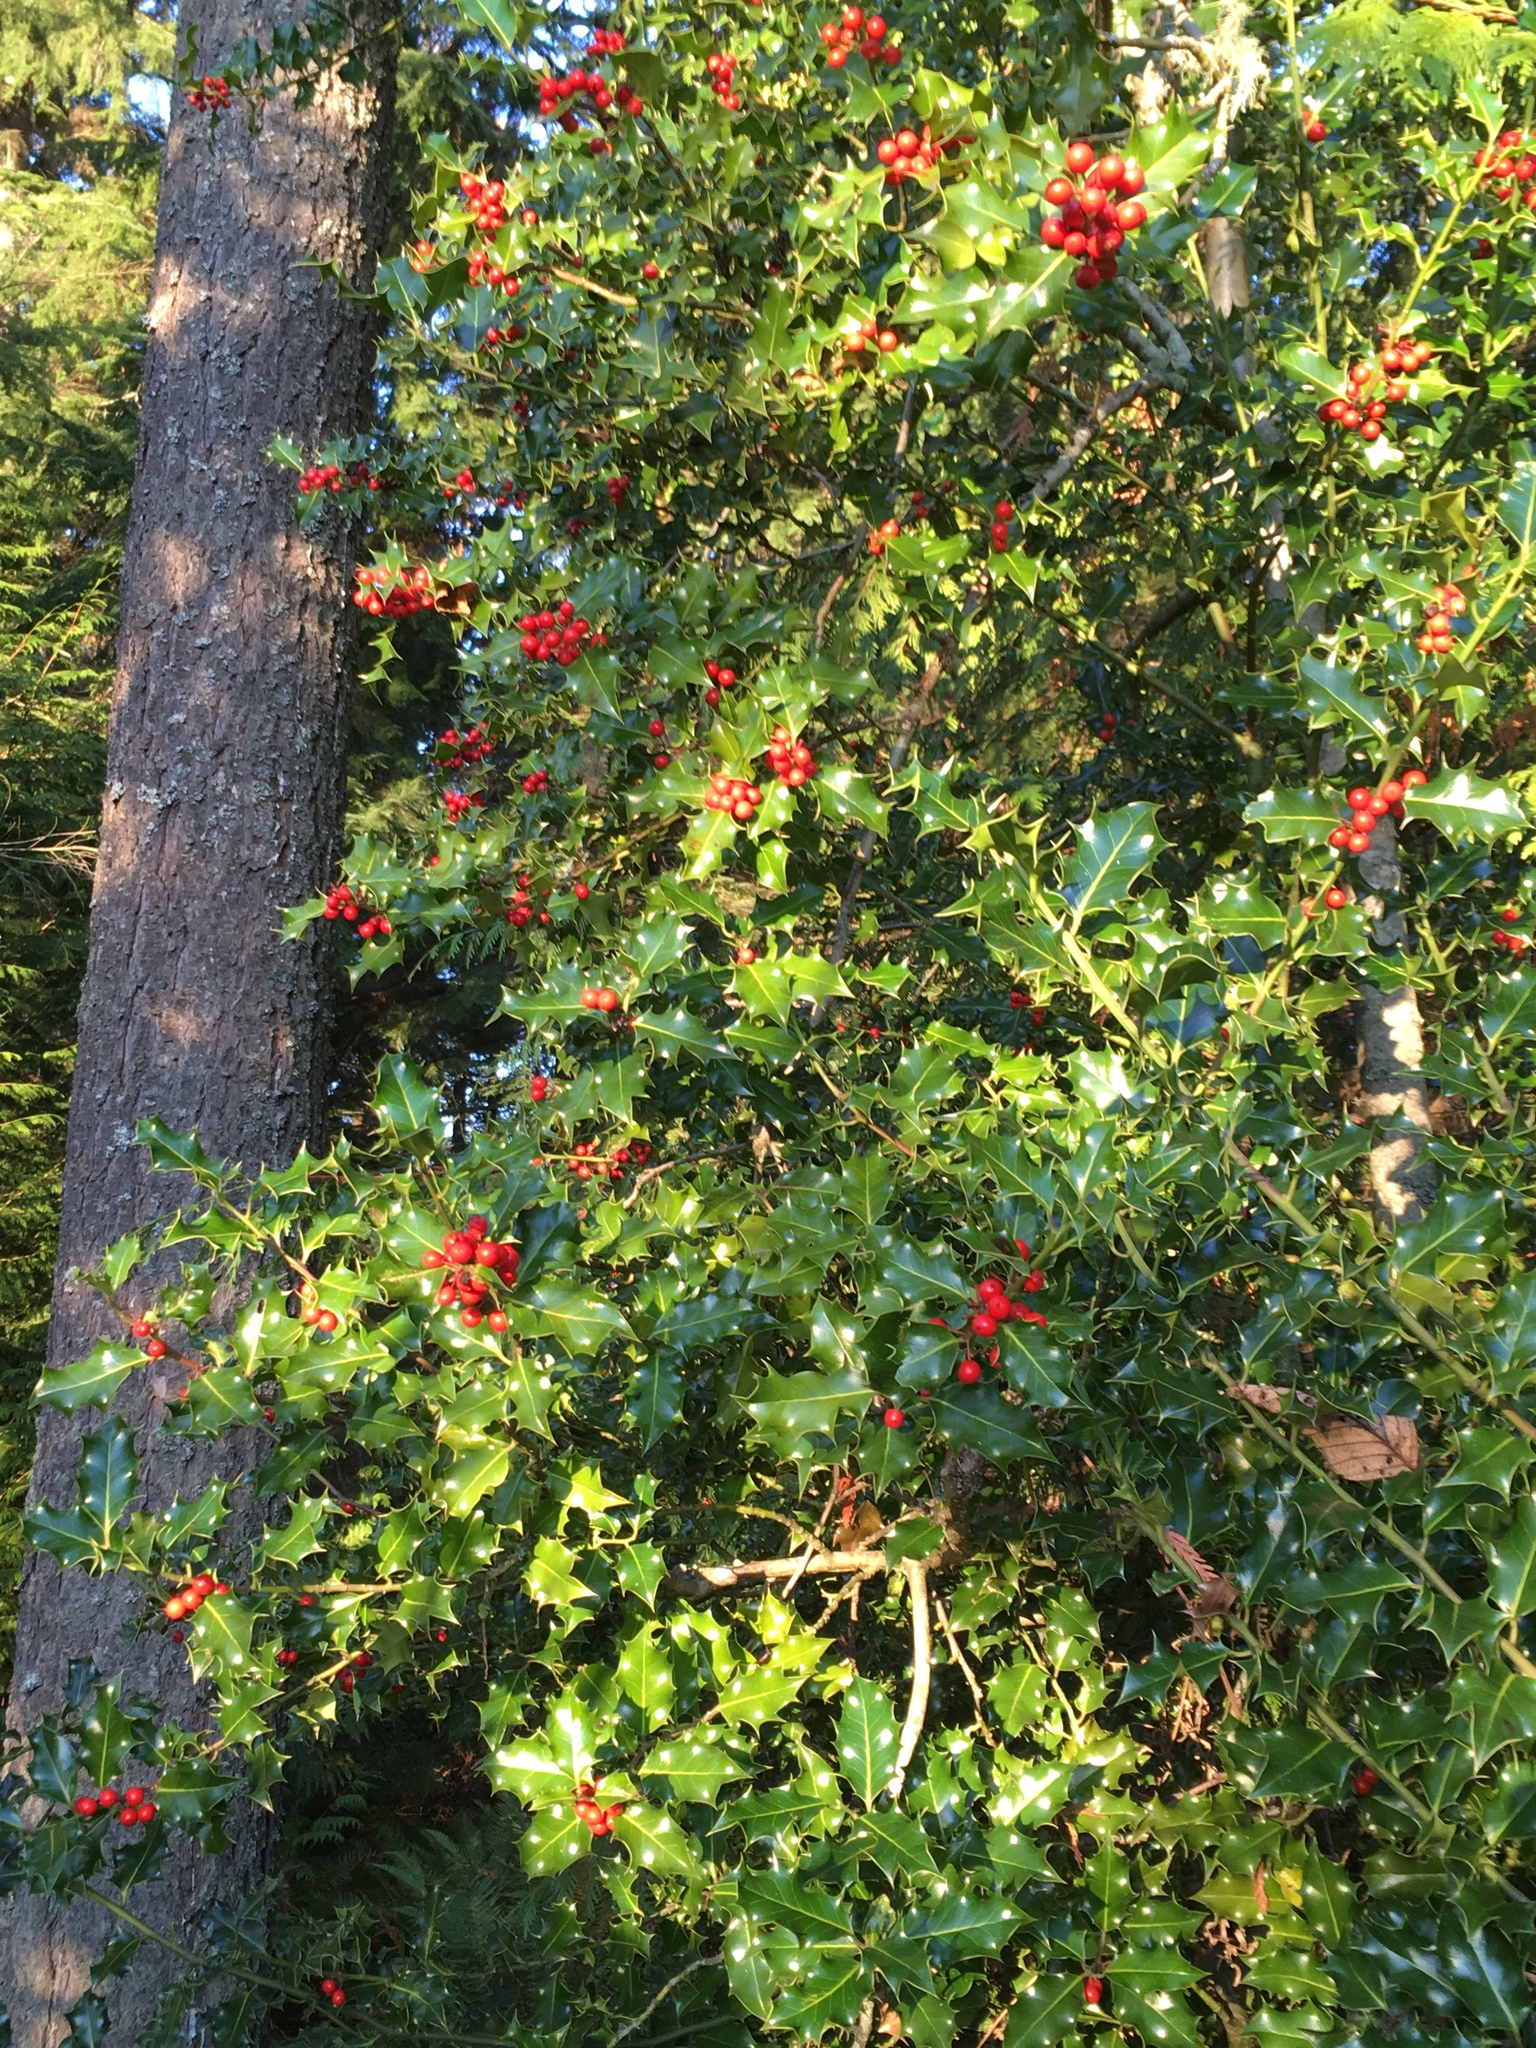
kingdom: Plantae
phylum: Tracheophyta
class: Magnoliopsida
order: Aquifoliales
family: Aquifoliaceae
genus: Ilex
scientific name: Ilex aquifolium
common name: English holly
